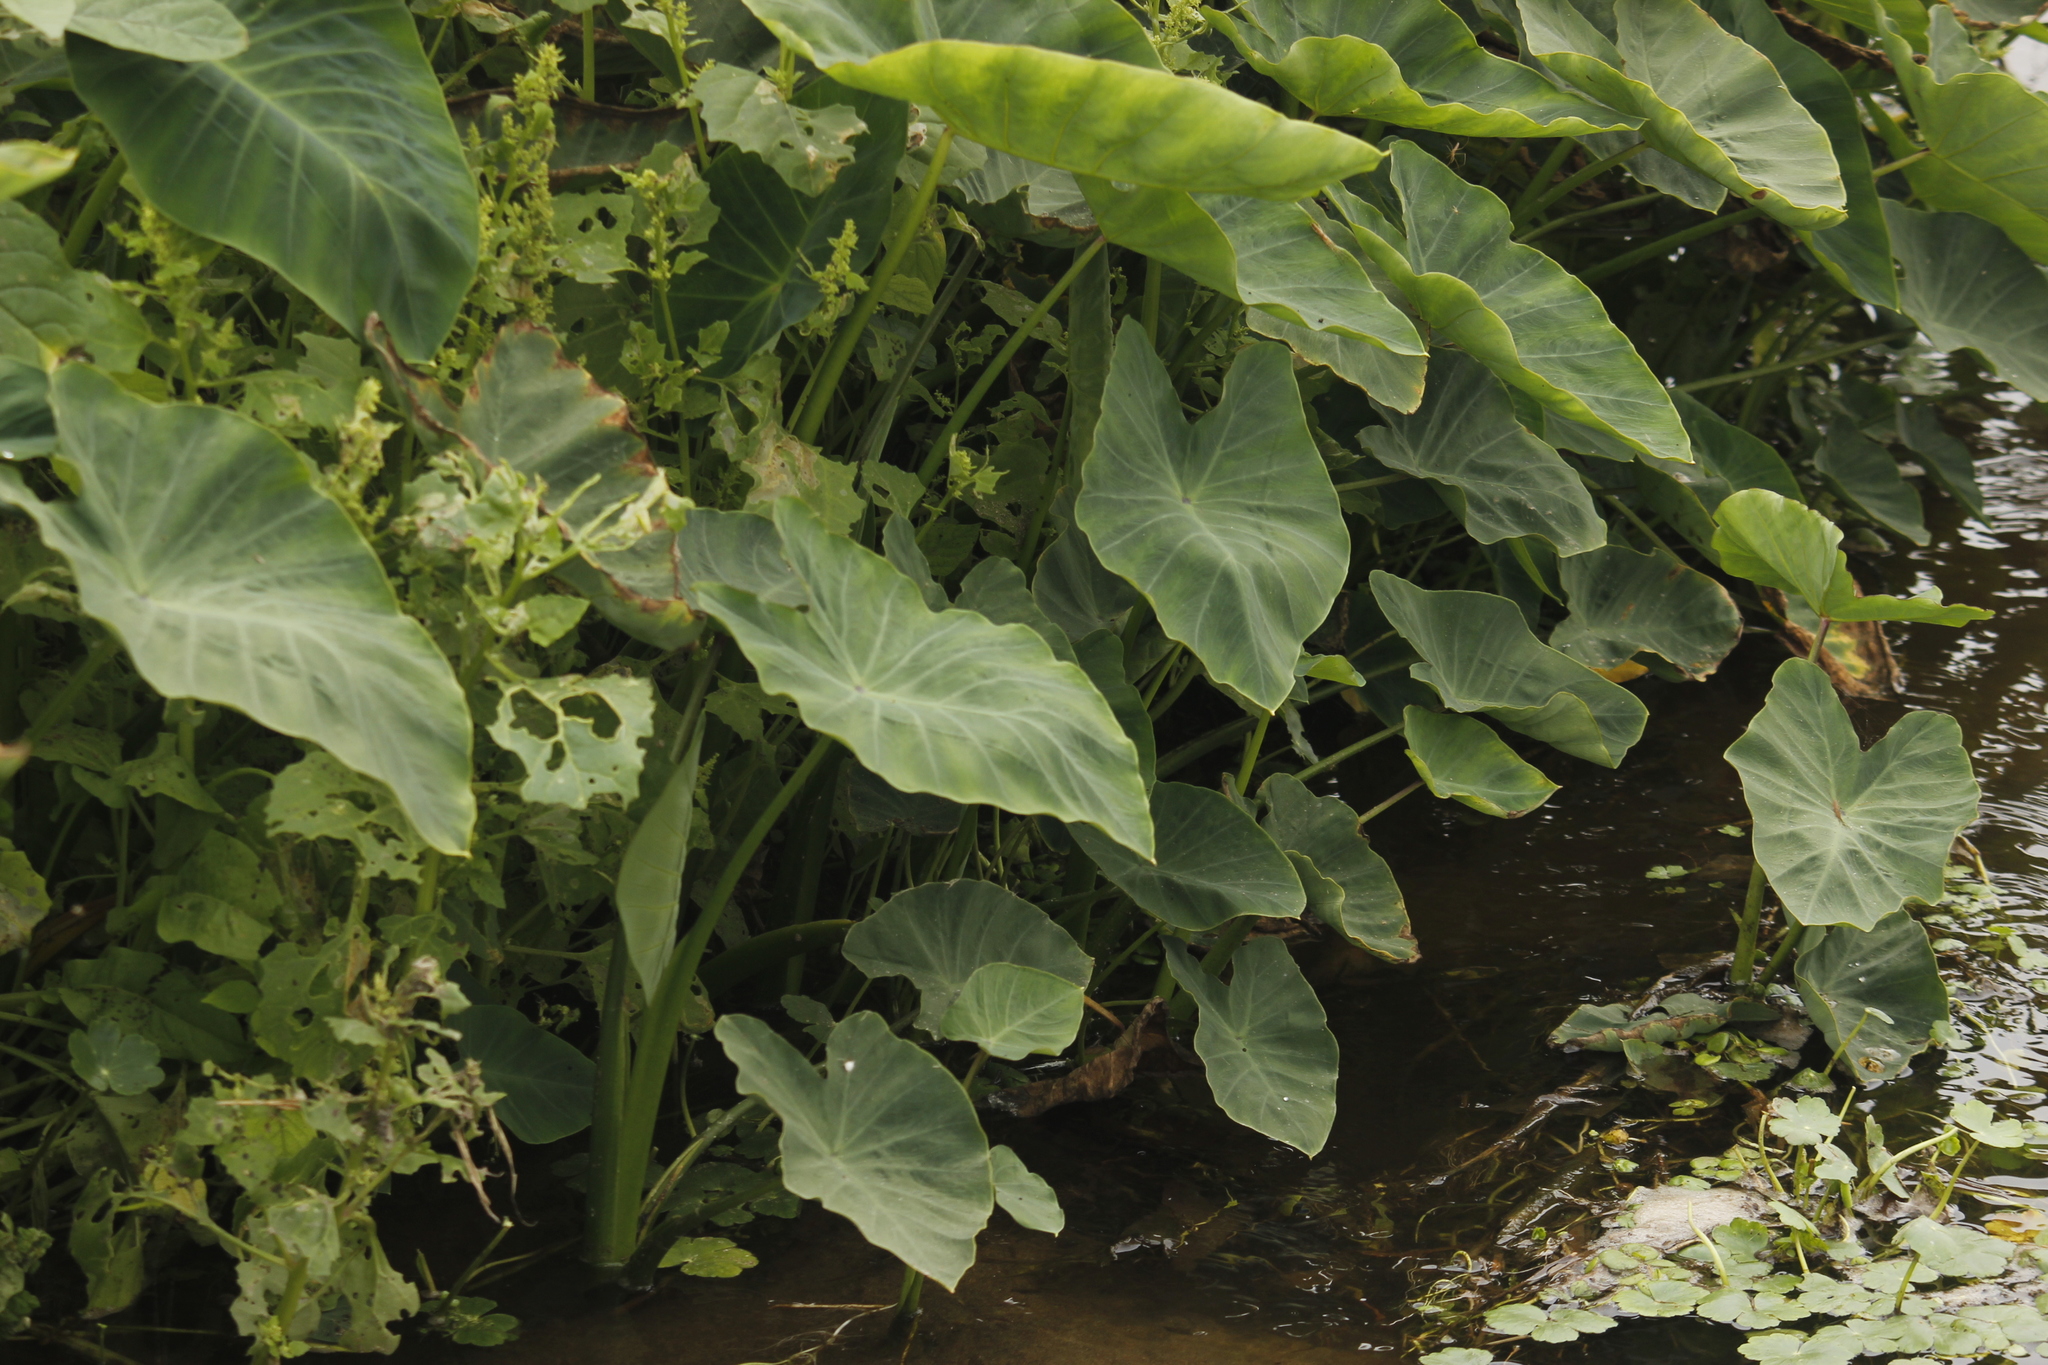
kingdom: Plantae
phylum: Tracheophyta
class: Liliopsida
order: Alismatales
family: Araceae
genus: Colocasia
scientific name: Colocasia esculenta
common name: Taro
